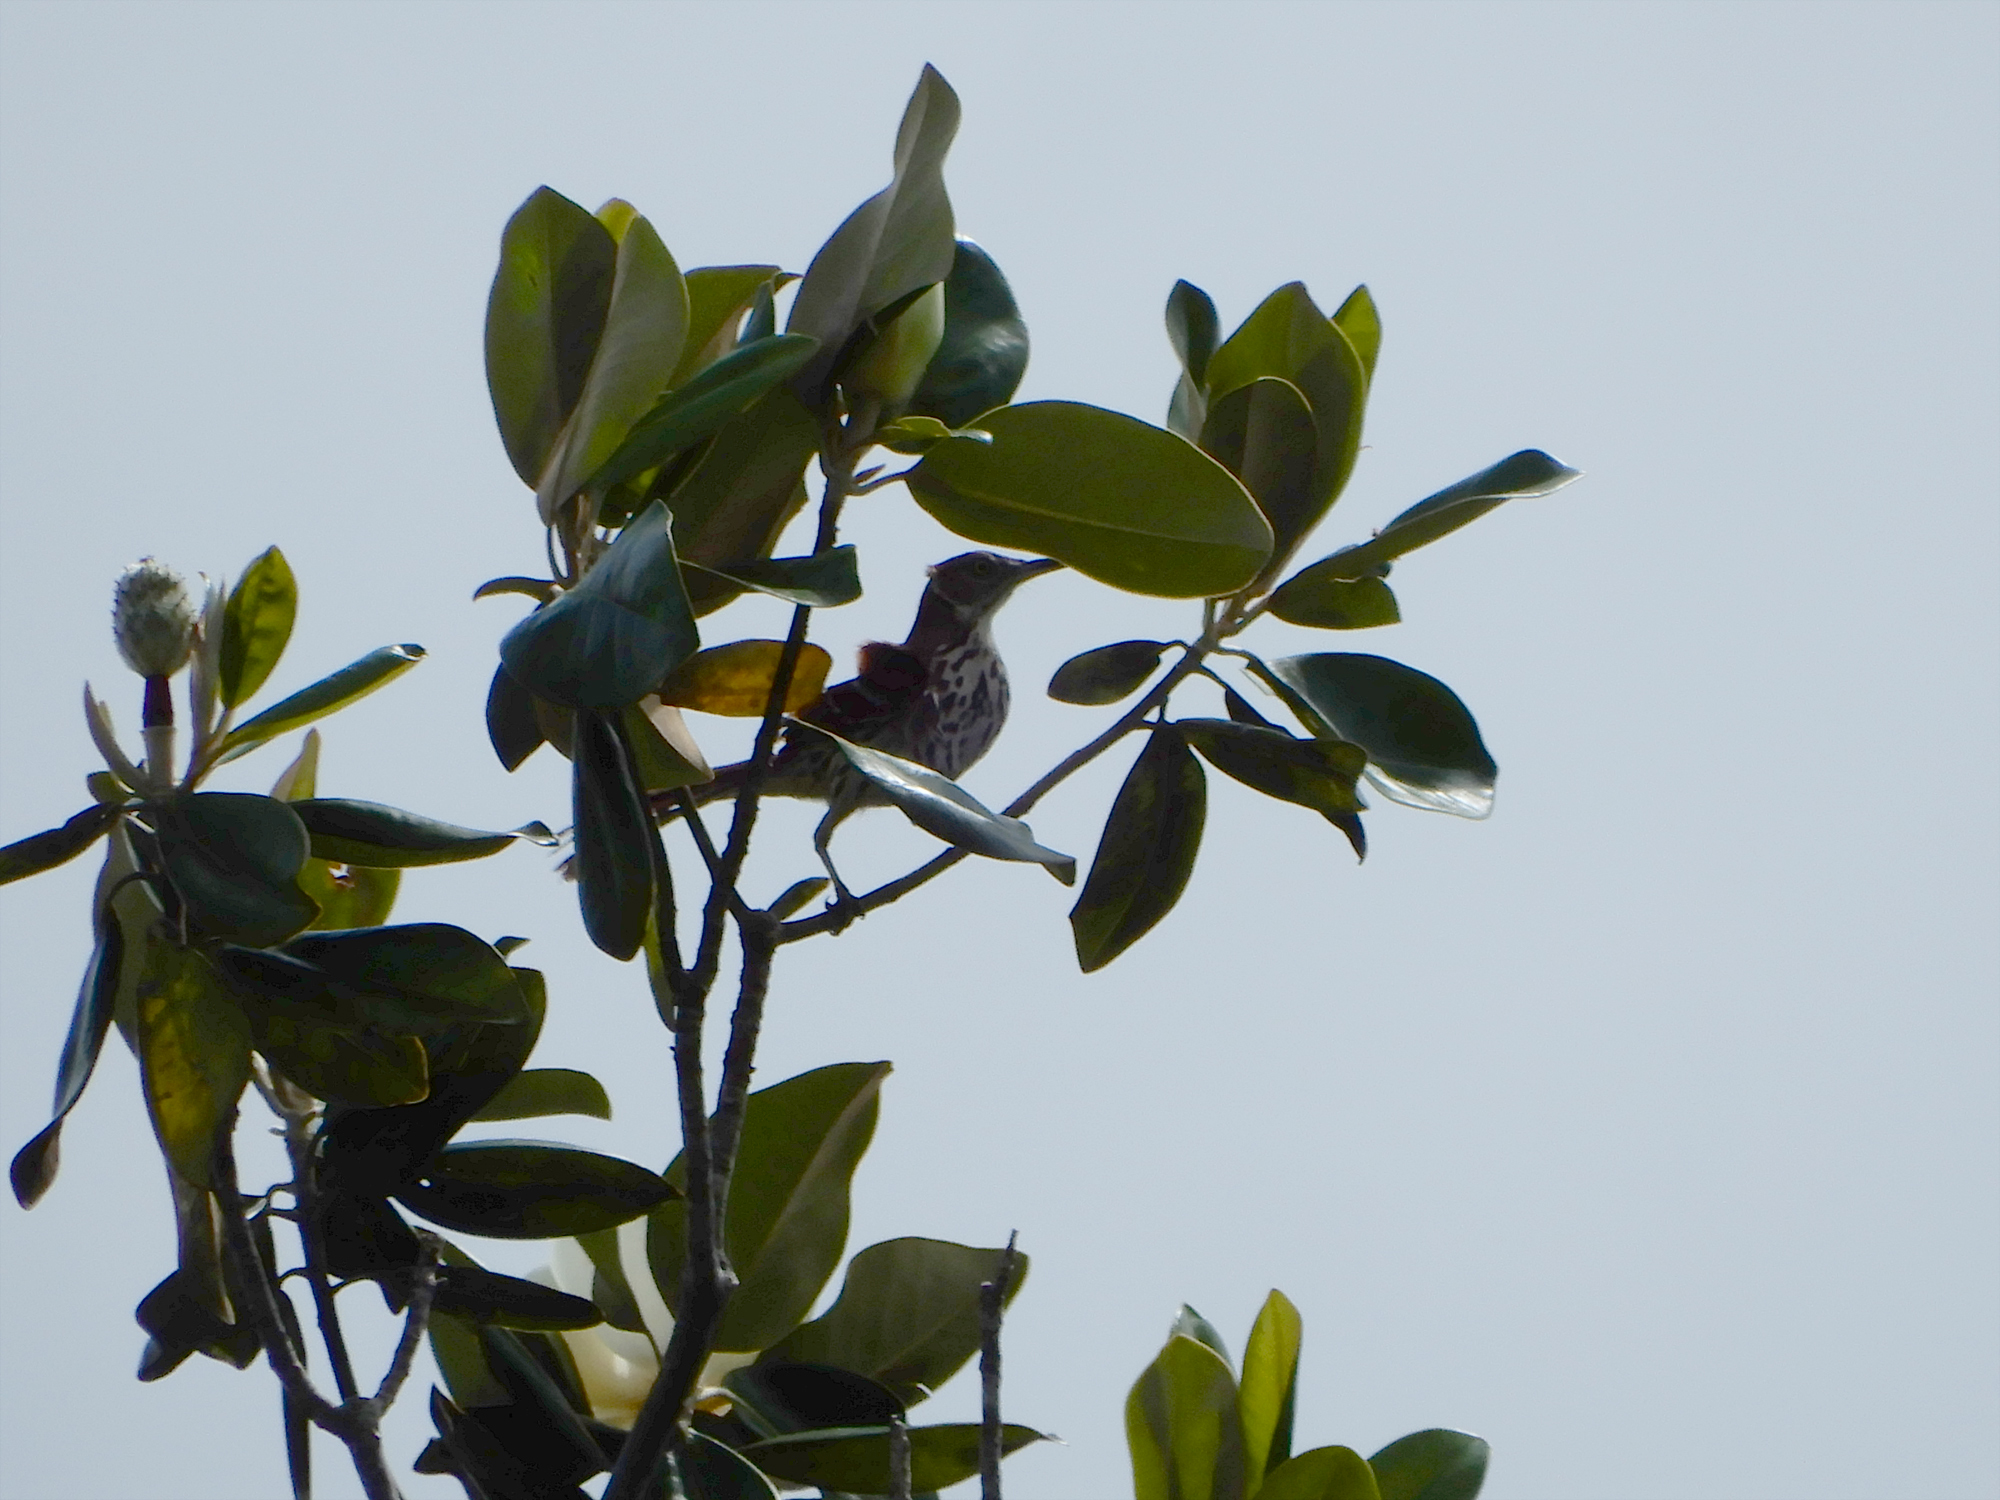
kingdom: Animalia
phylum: Chordata
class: Aves
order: Passeriformes
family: Mimidae
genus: Toxostoma
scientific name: Toxostoma rufum
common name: Brown thrasher
